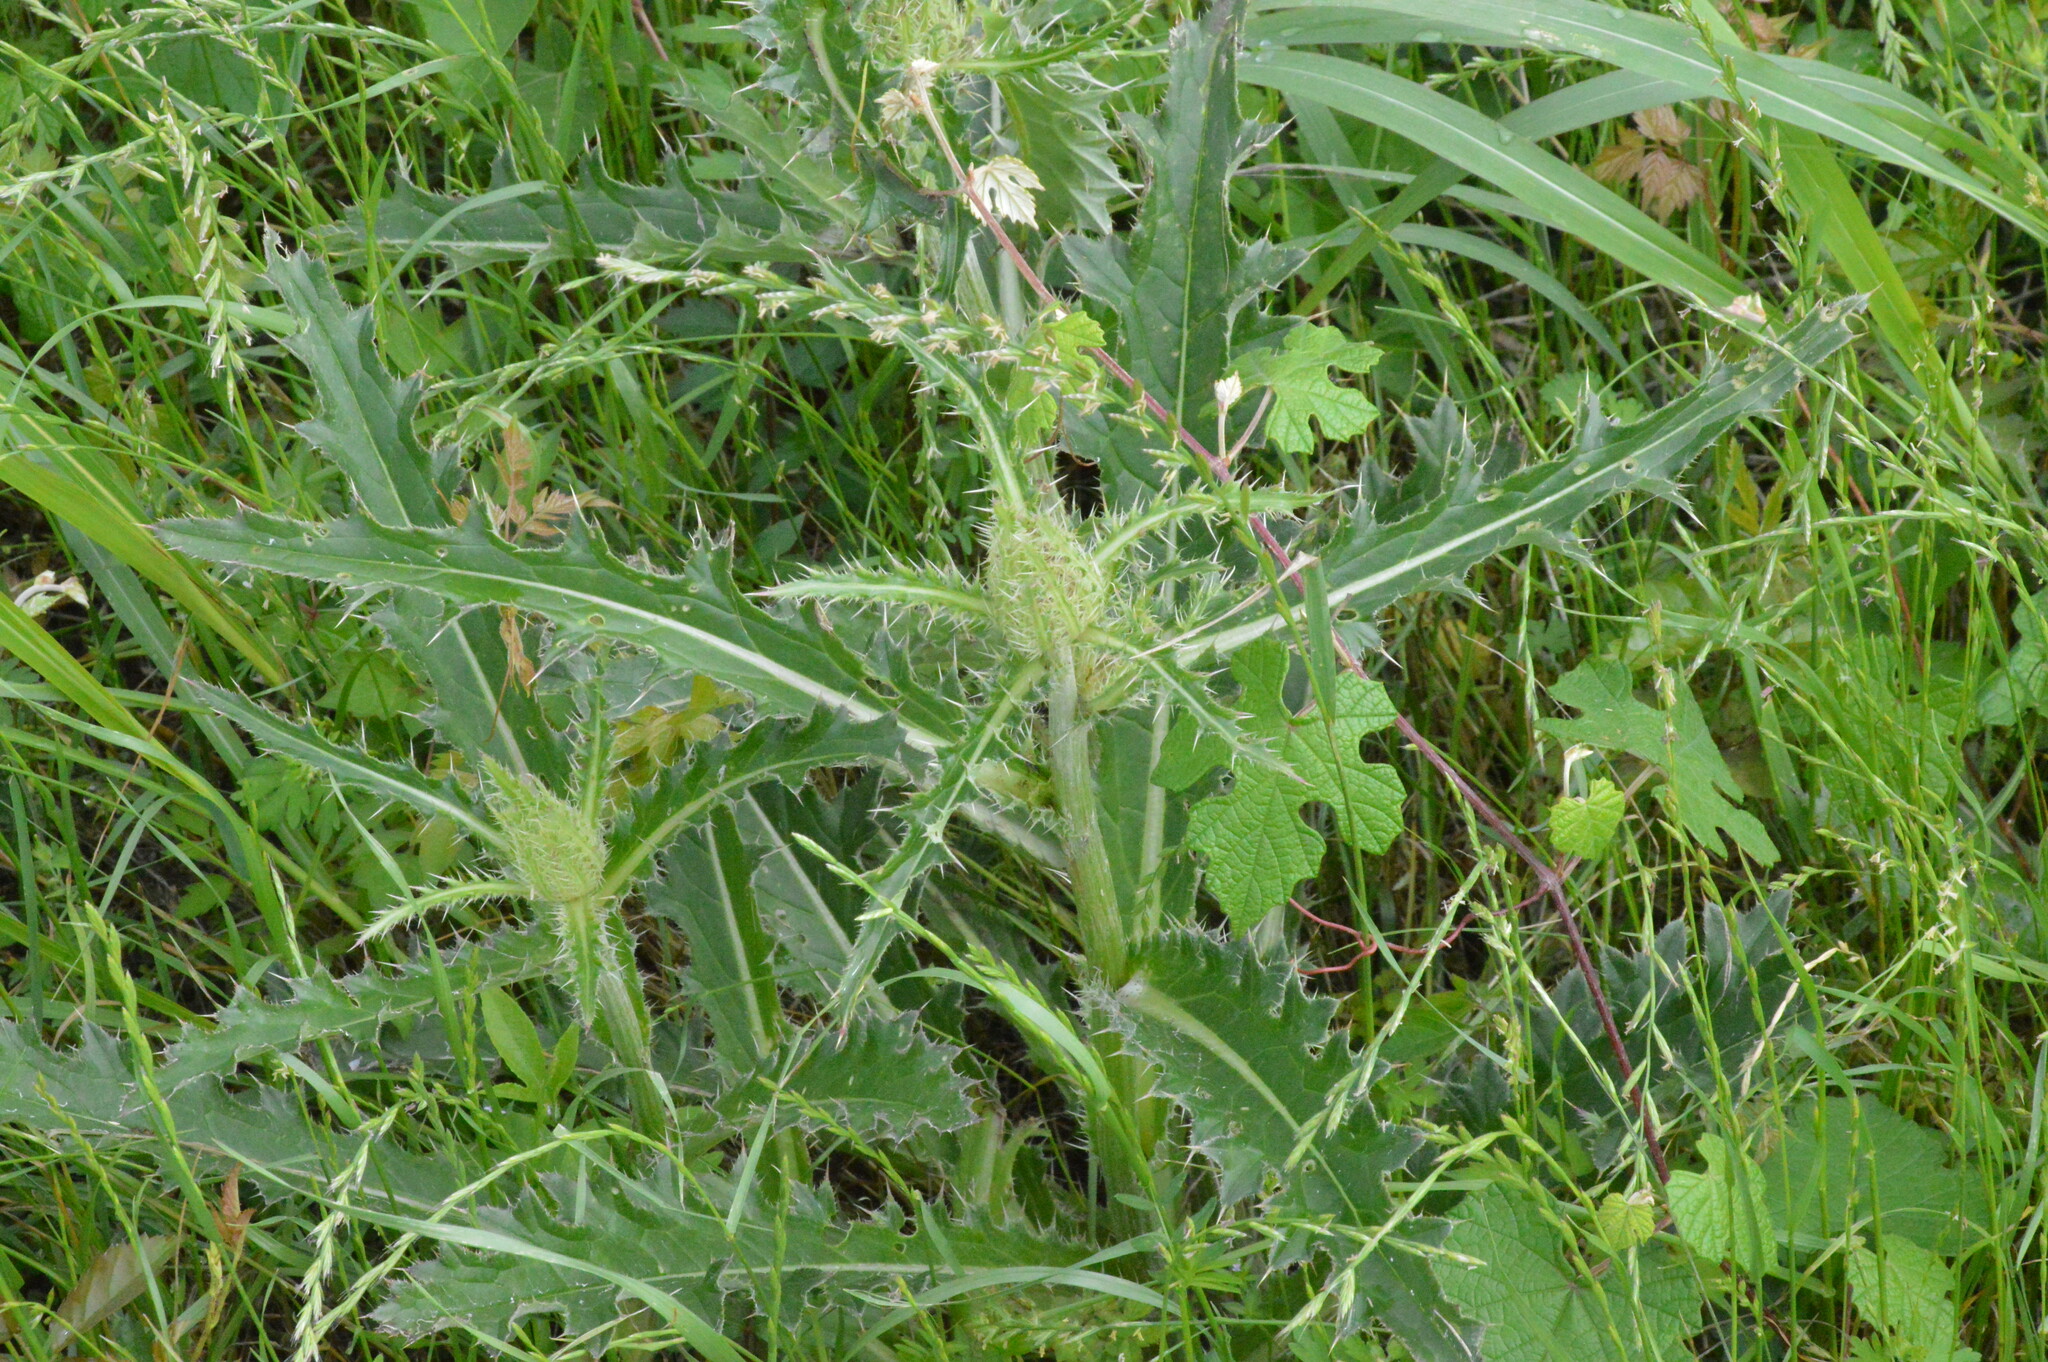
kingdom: Plantae
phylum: Tracheophyta
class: Magnoliopsida
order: Asterales
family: Asteraceae
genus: Cirsium
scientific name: Cirsium horridulum
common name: Bristly thistle
